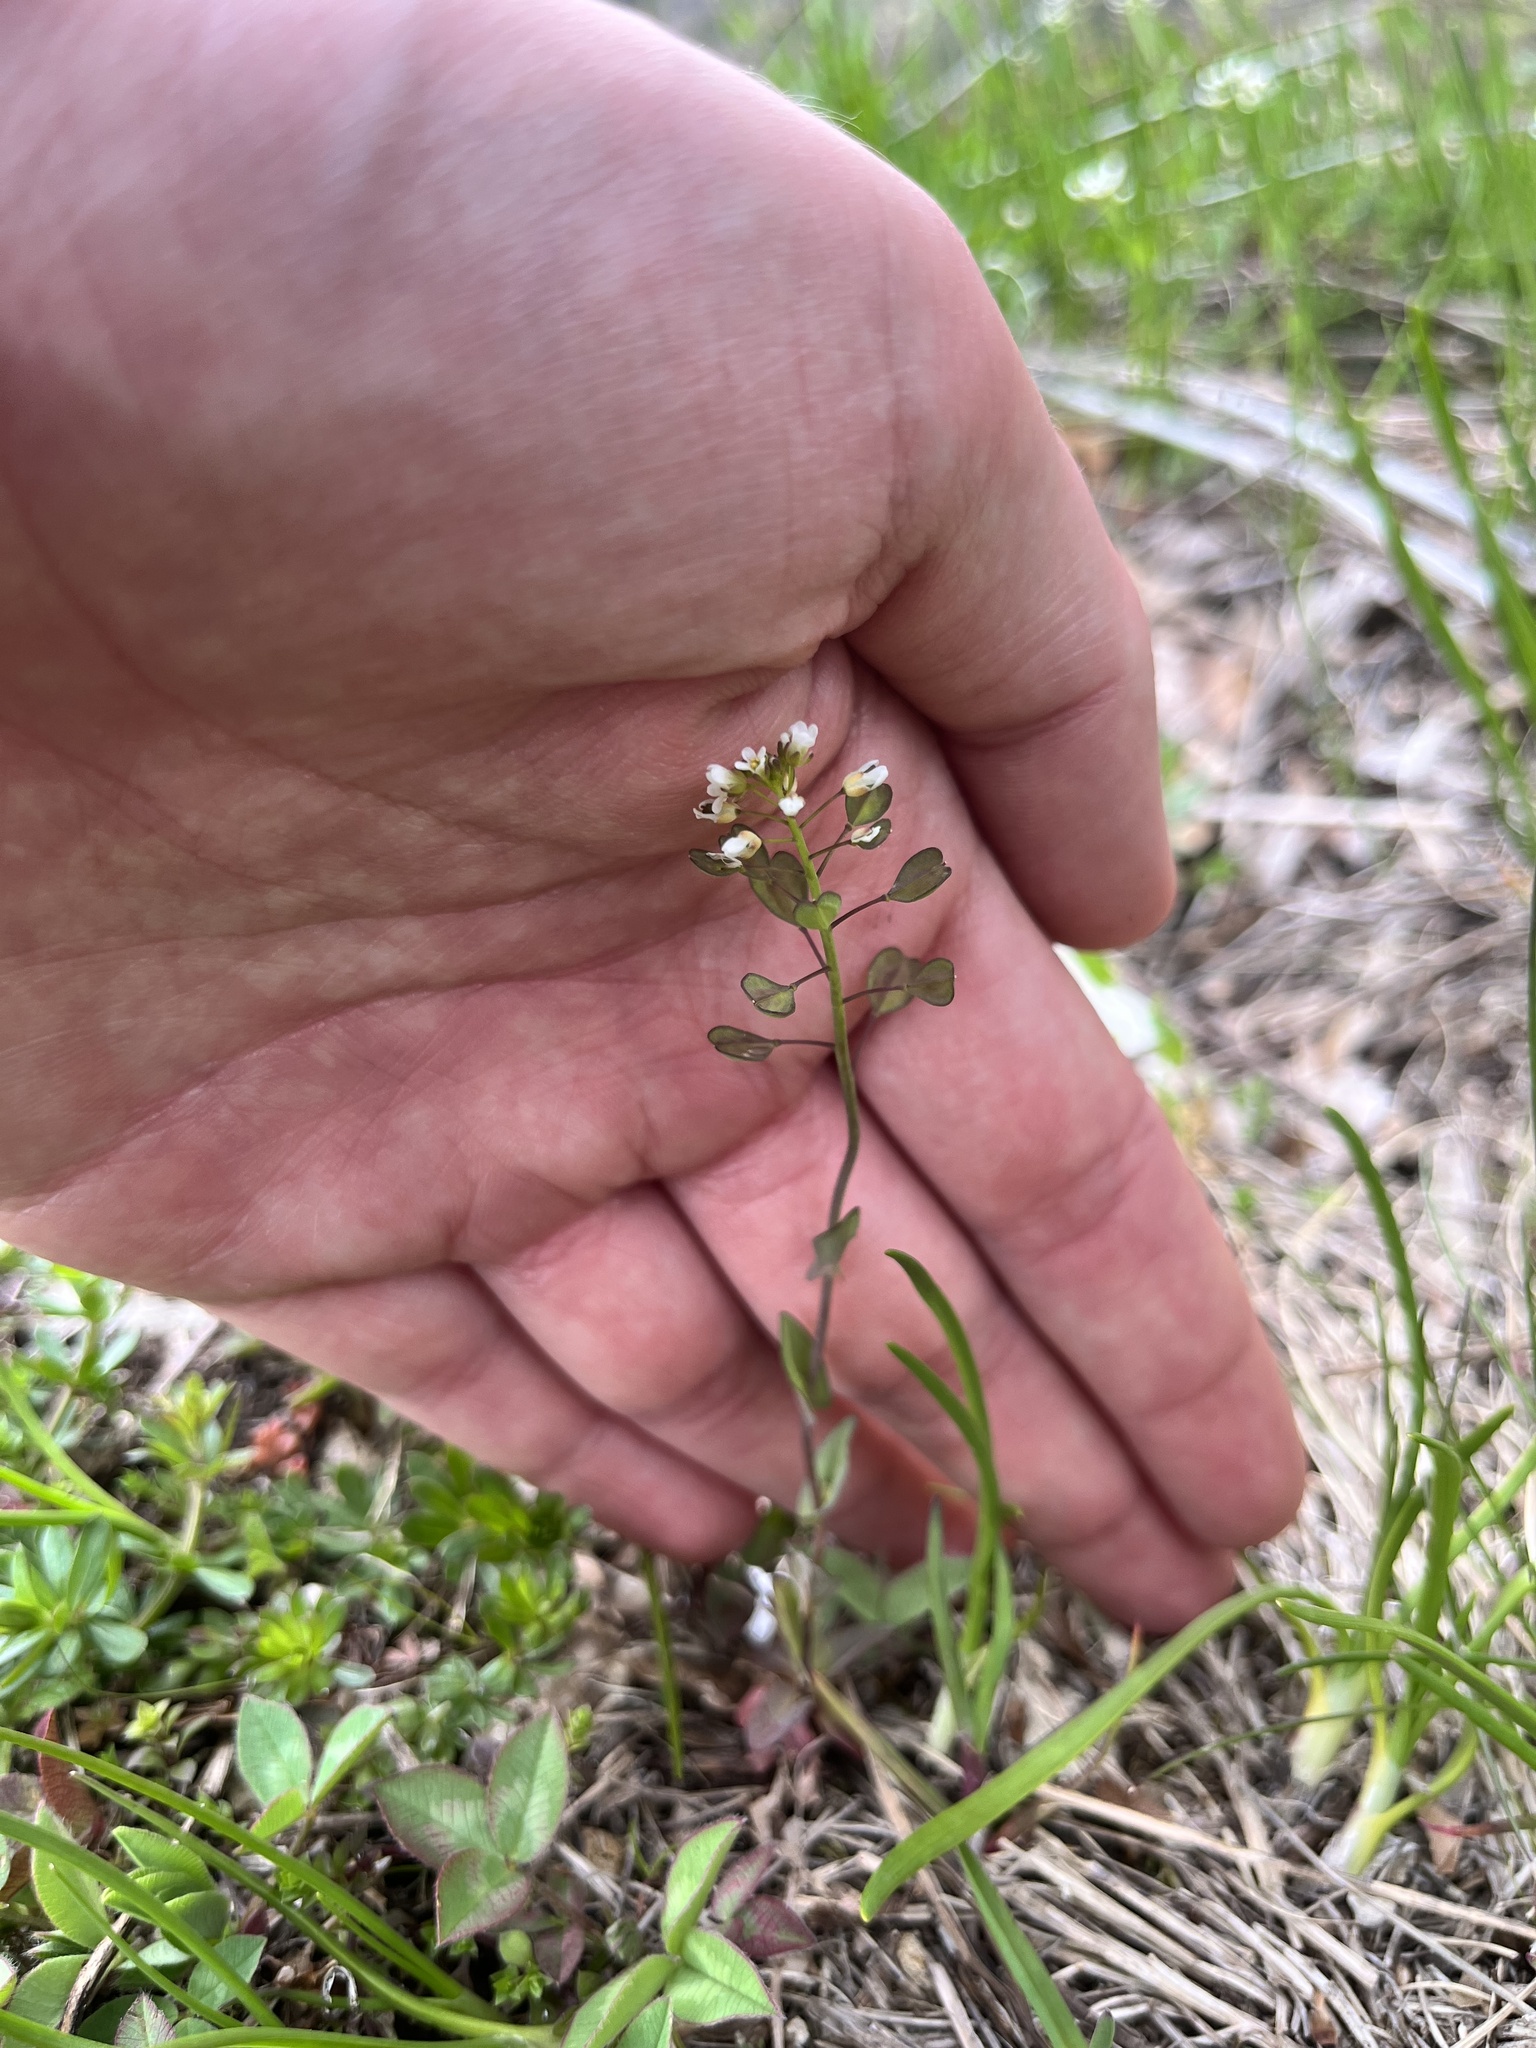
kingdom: Plantae
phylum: Tracheophyta
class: Magnoliopsida
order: Brassicales
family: Brassicaceae
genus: Noccaea
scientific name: Noccaea perfoliata
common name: Perfoliate pennycress
